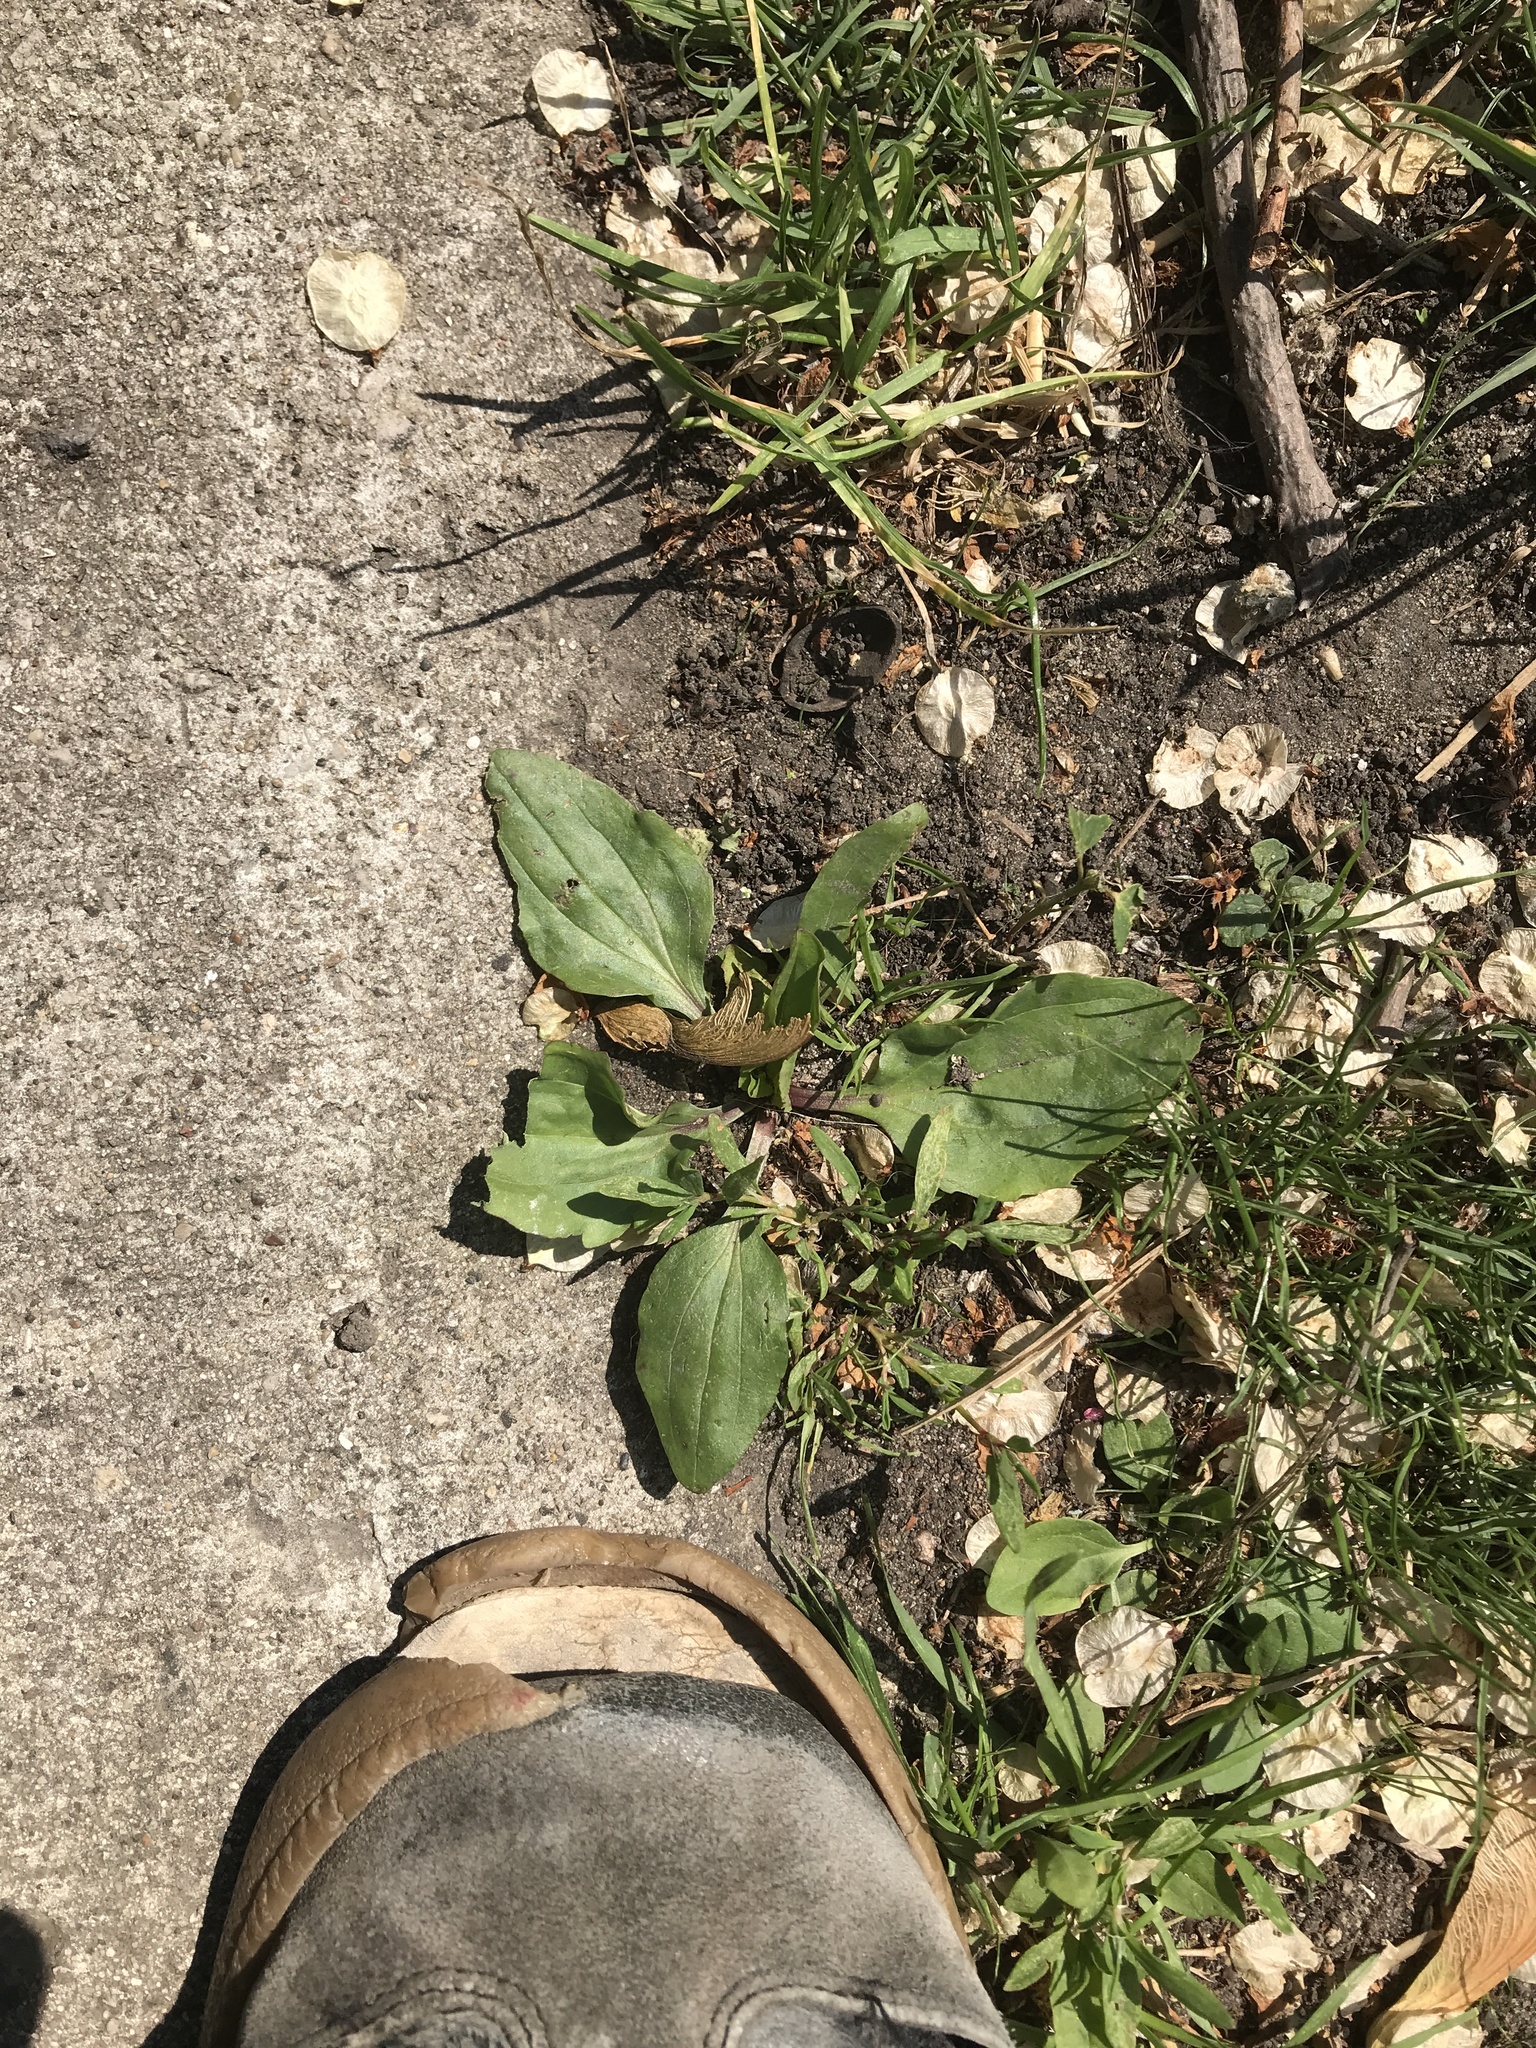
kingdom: Plantae
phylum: Tracheophyta
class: Magnoliopsida
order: Lamiales
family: Plantaginaceae
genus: Plantago
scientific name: Plantago rugelii
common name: American plantain
